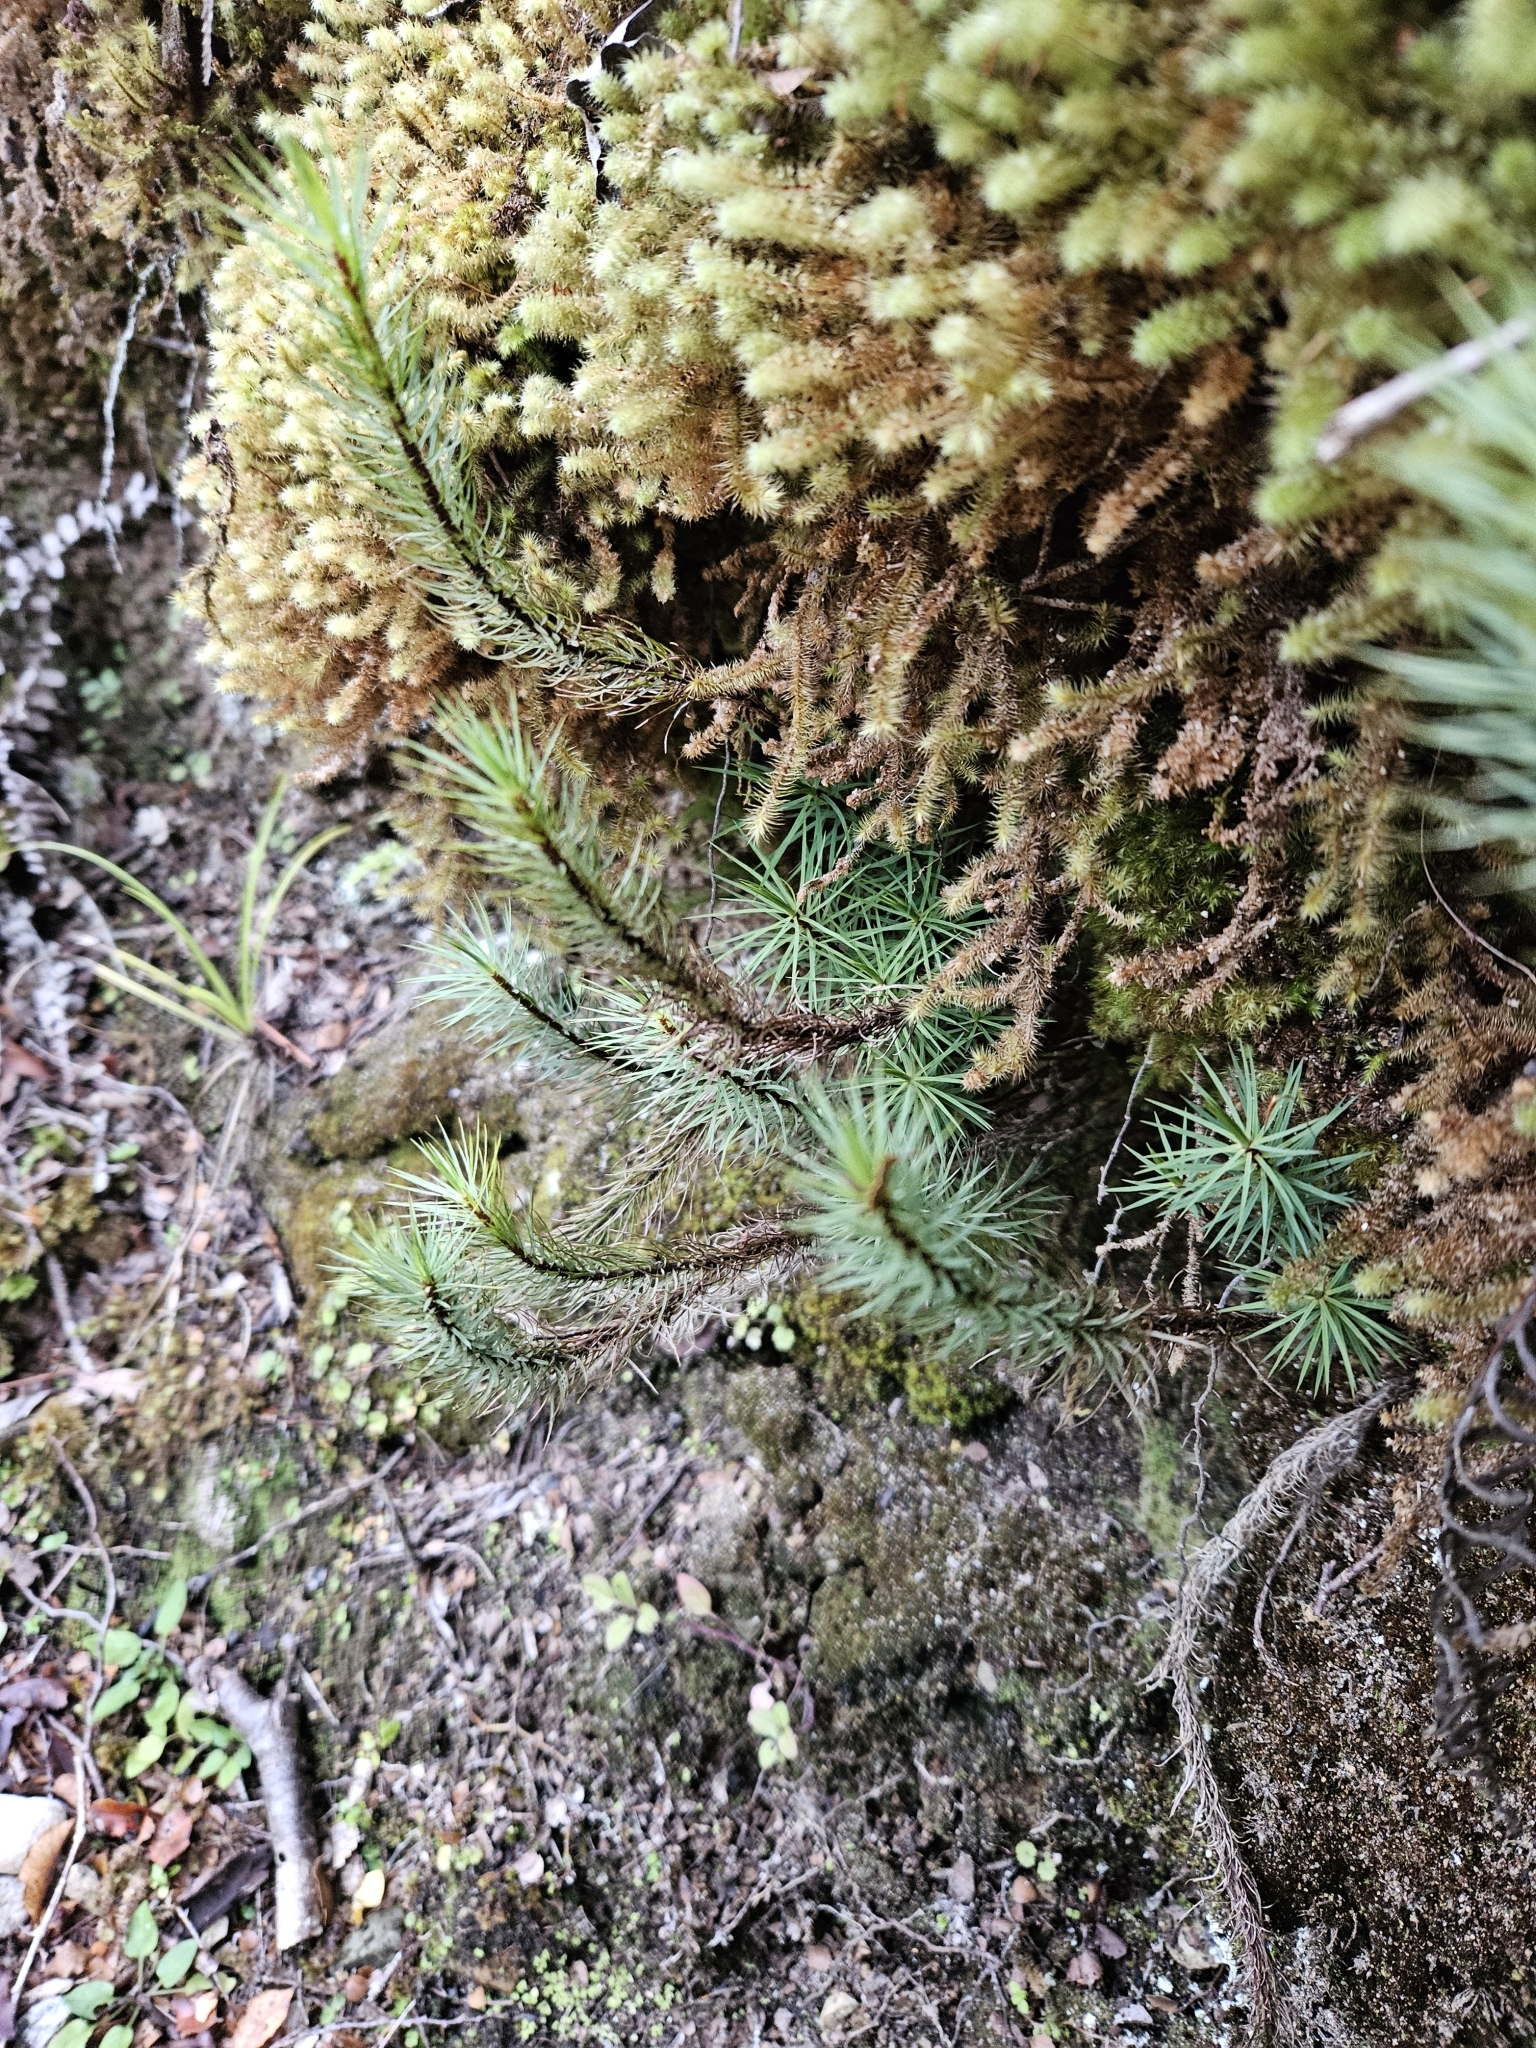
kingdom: Plantae
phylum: Bryophyta
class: Polytrichopsida
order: Polytrichales
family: Polytrichaceae
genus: Dawsonia
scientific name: Dawsonia superba
